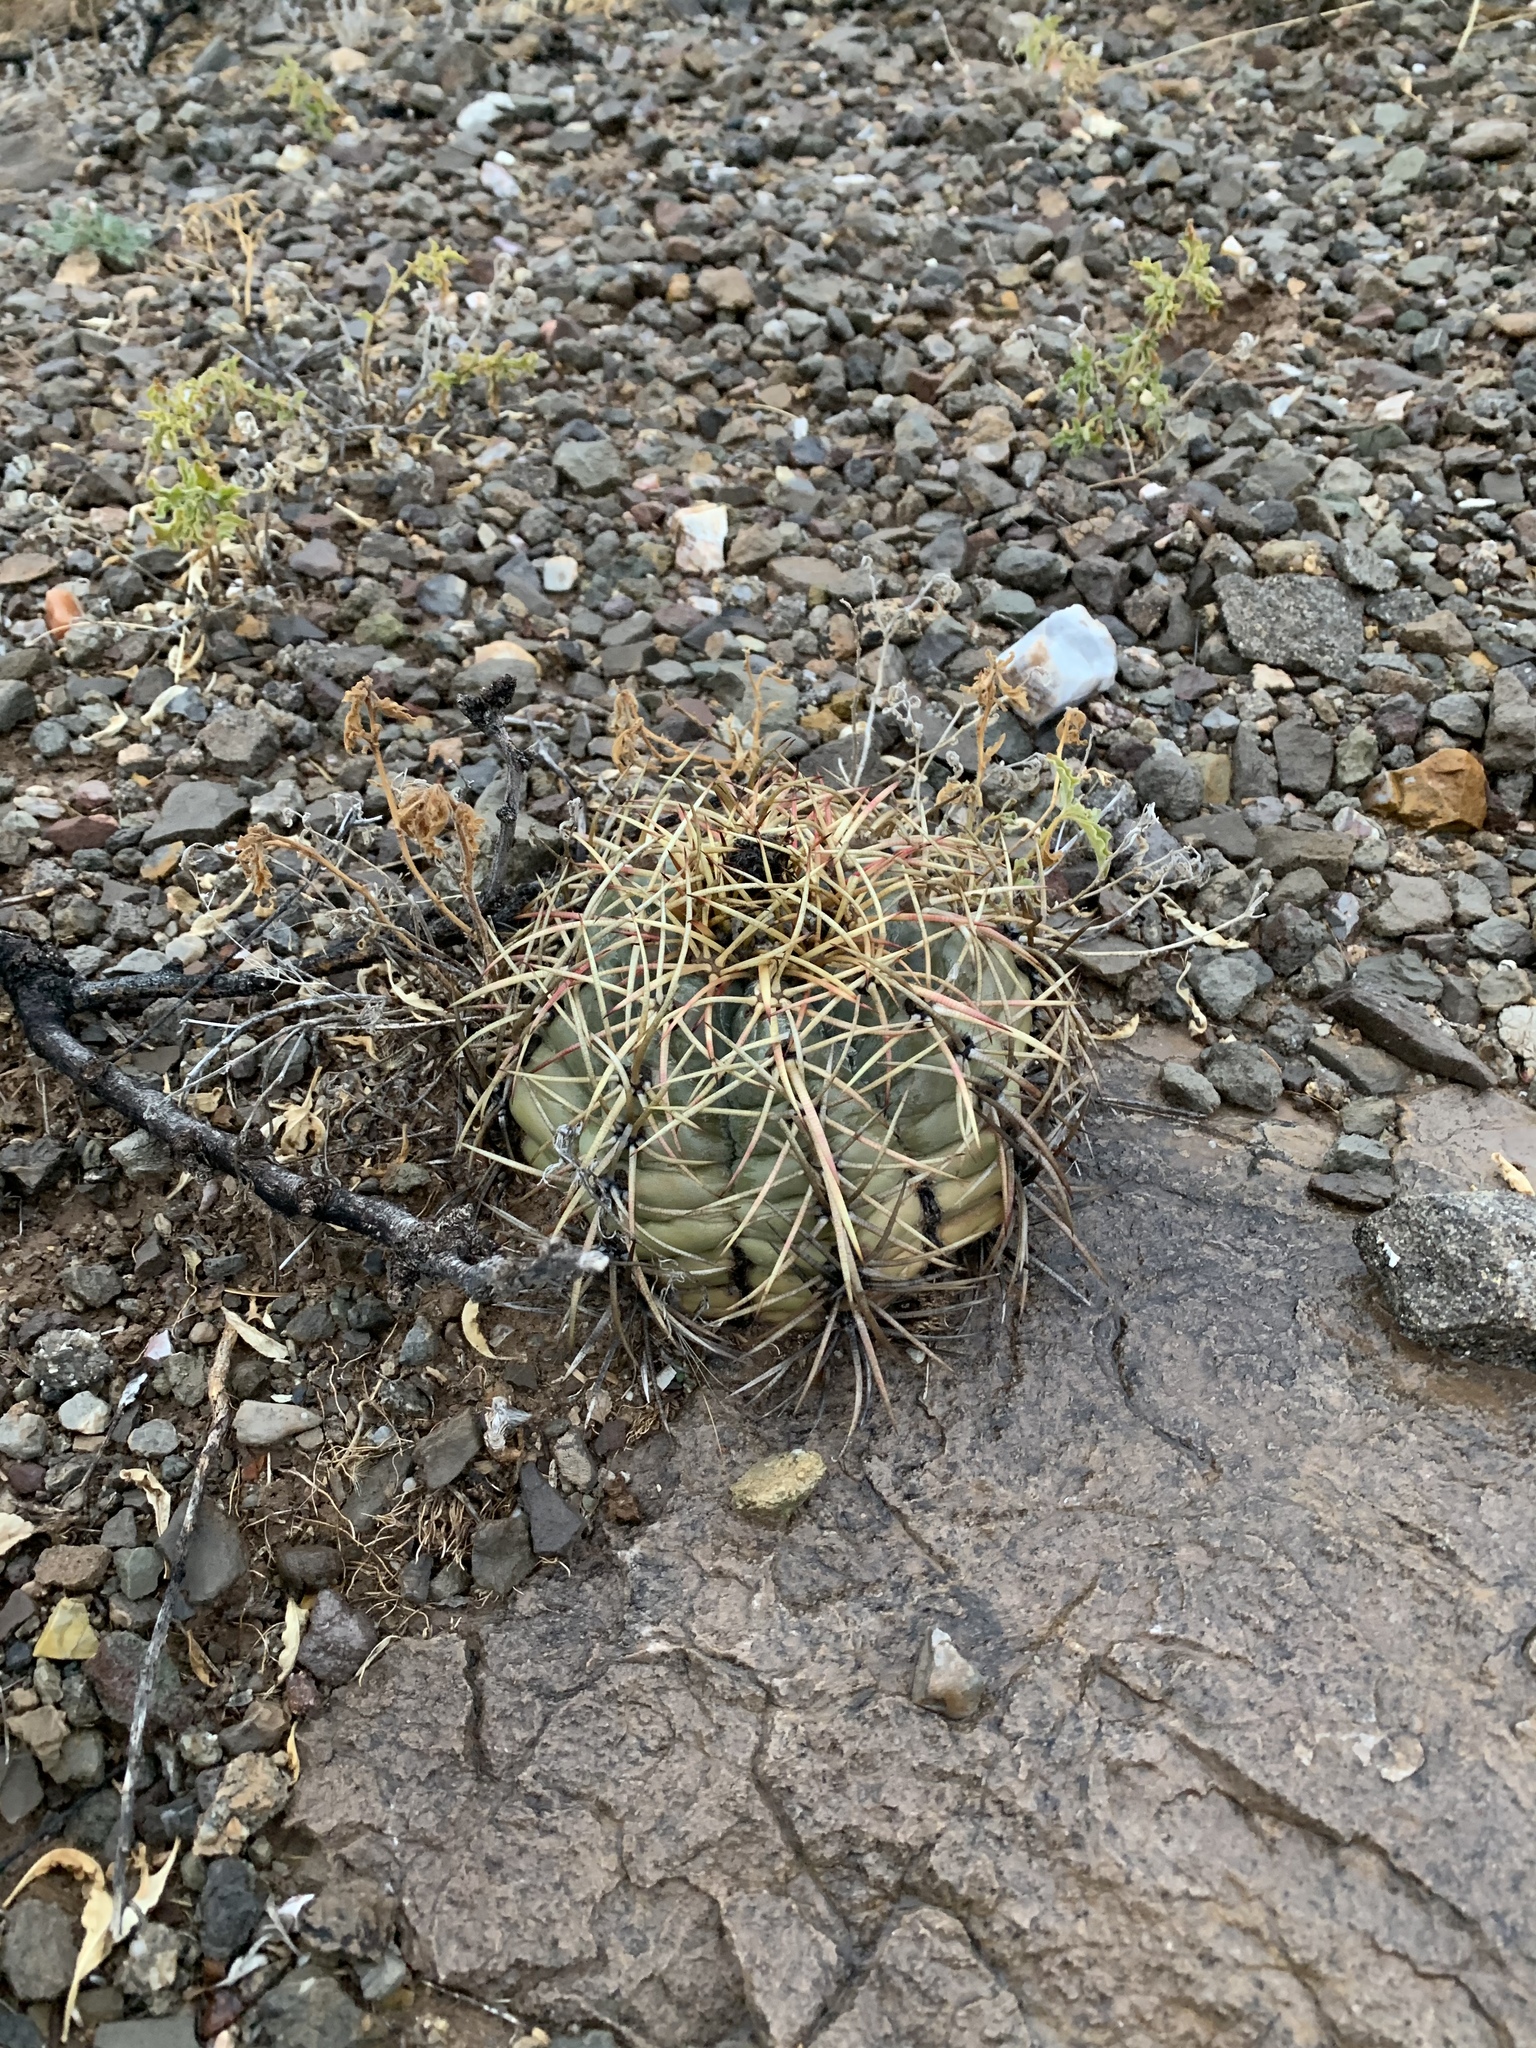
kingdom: Plantae
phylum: Tracheophyta
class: Magnoliopsida
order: Caryophyllales
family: Cactaceae
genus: Echinocactus
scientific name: Echinocactus horizonthalonius
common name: Devilshead
